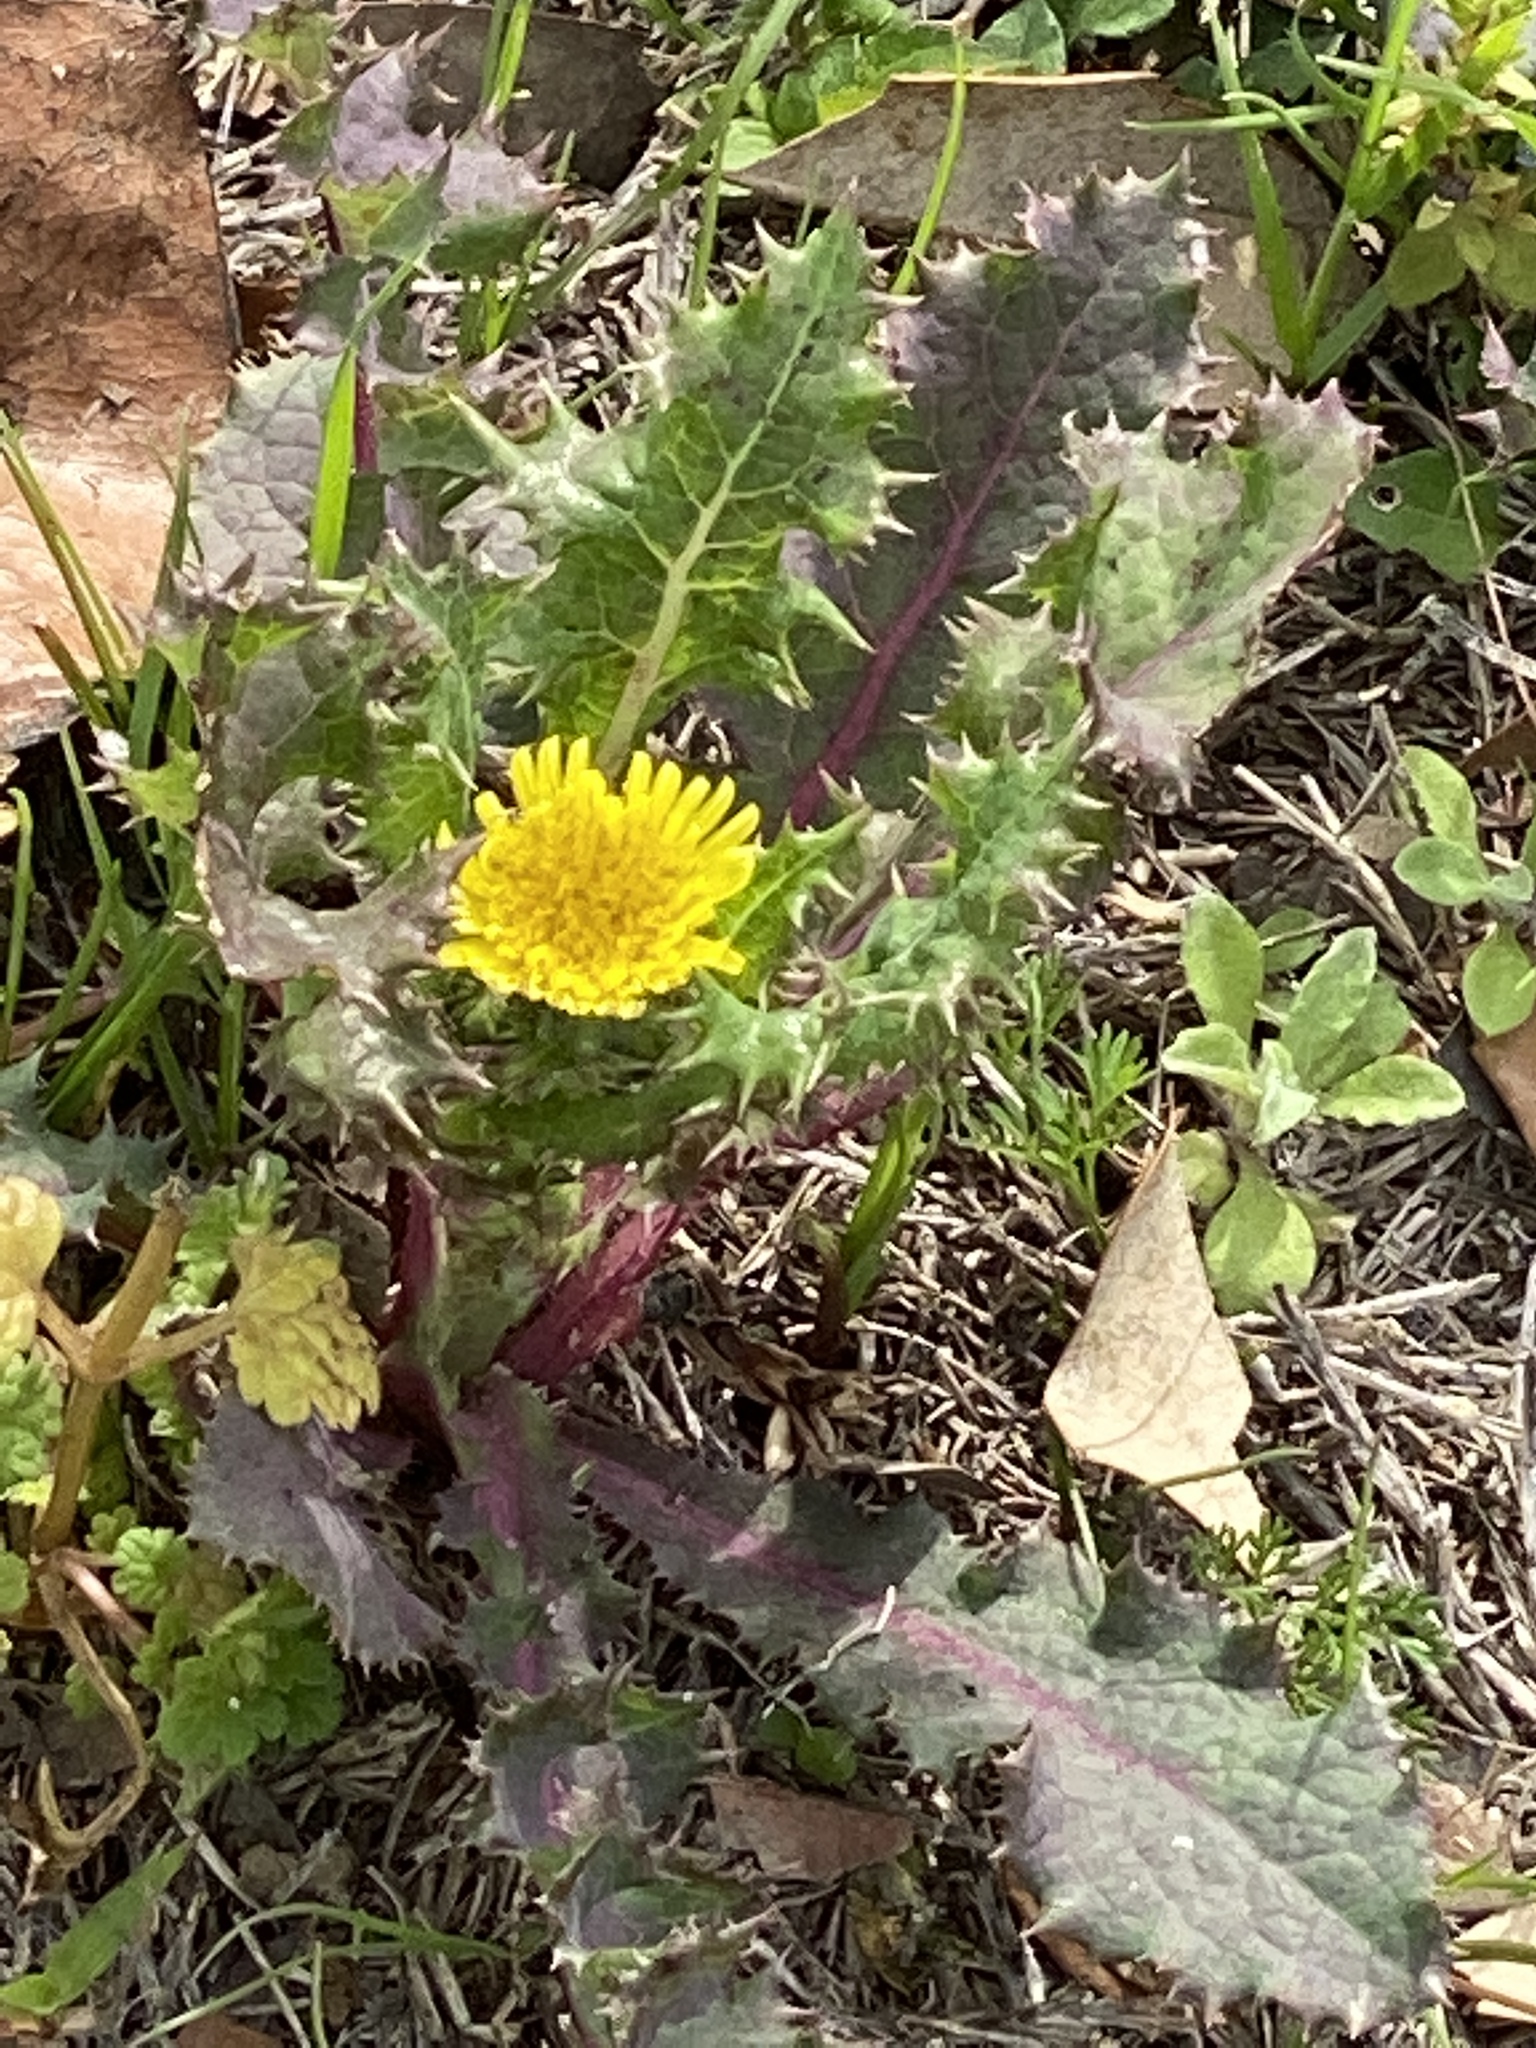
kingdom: Plantae
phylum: Tracheophyta
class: Magnoliopsida
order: Asterales
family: Asteraceae
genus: Sonchus
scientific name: Sonchus asper
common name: Prickly sow-thistle
